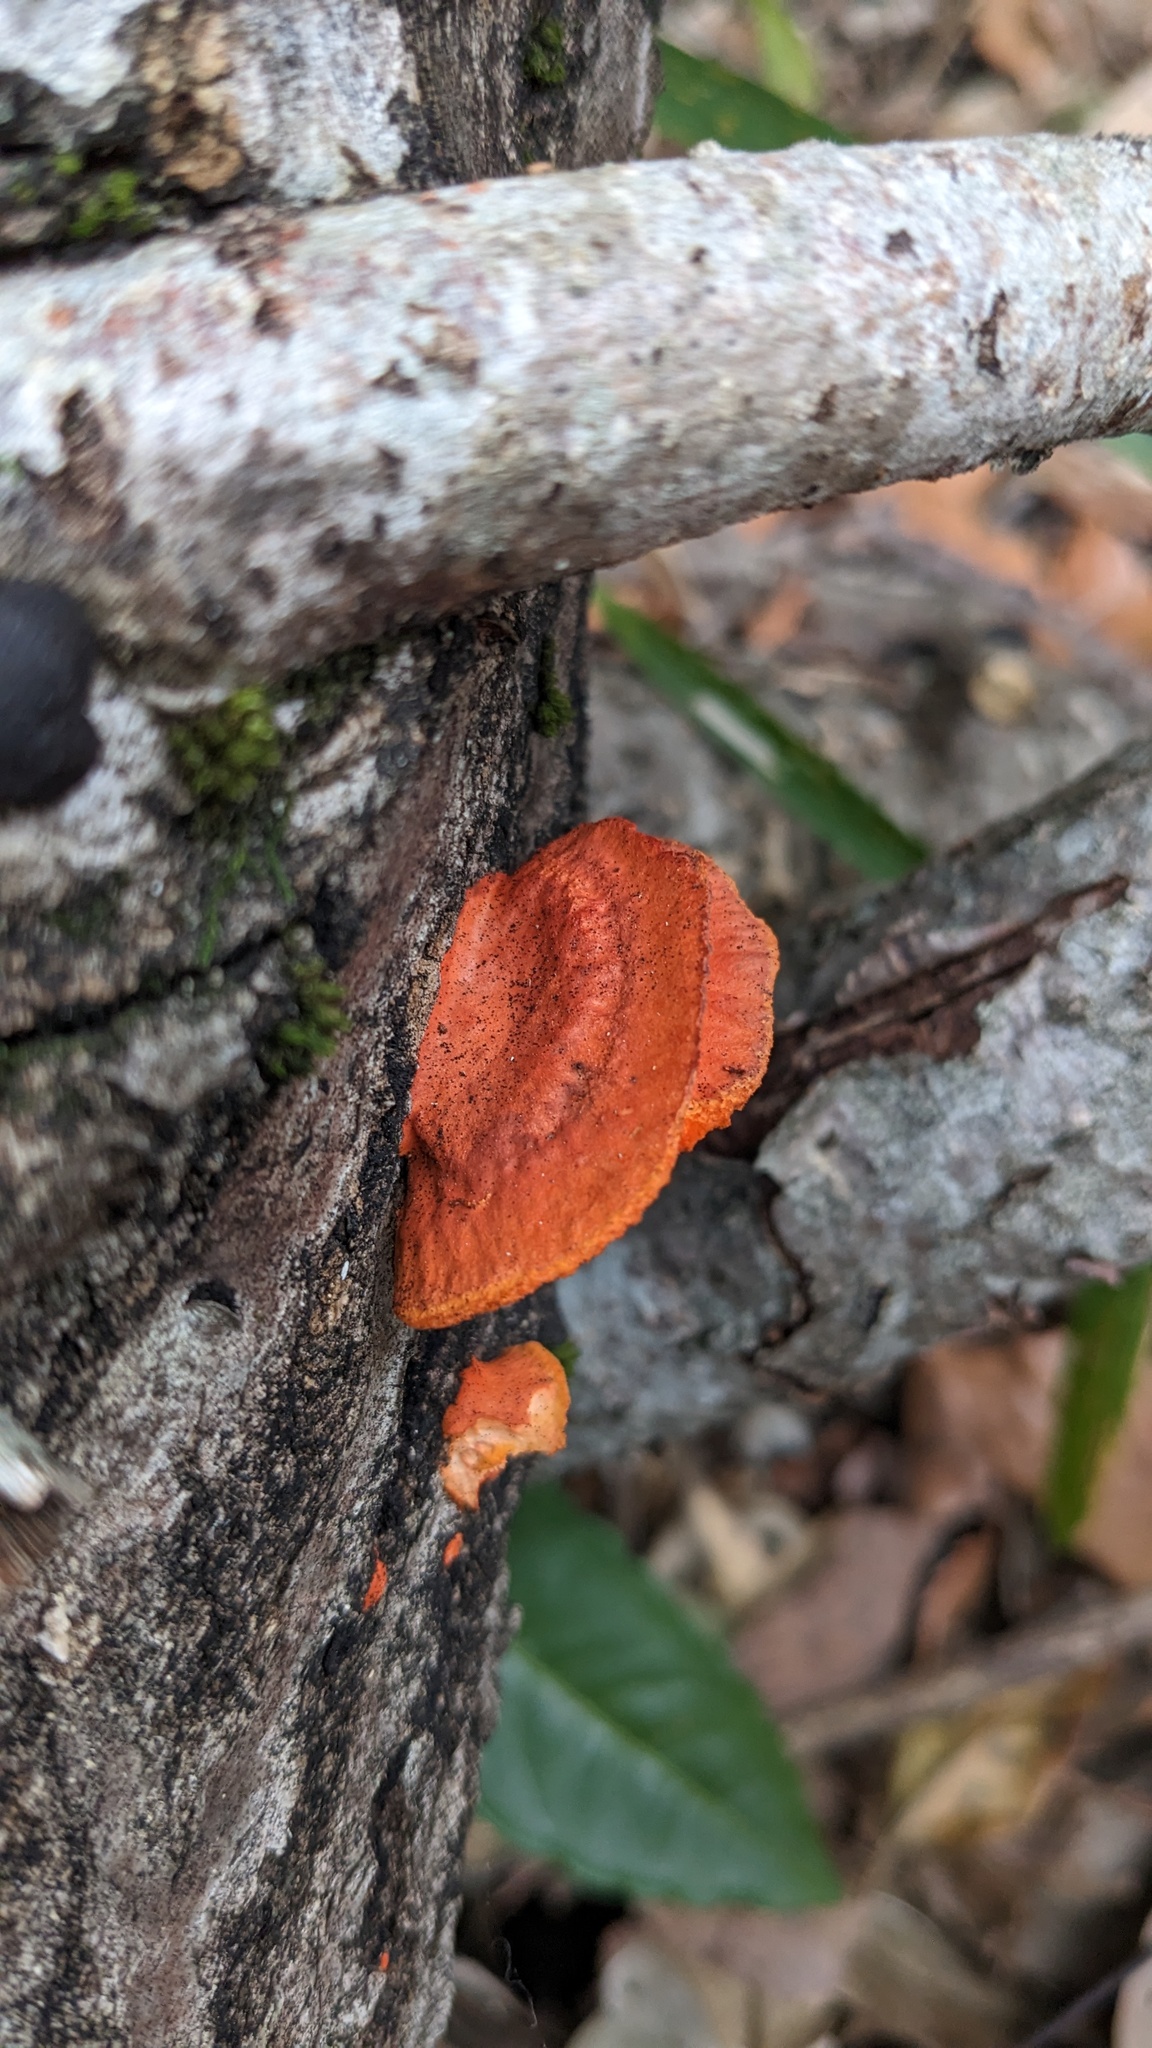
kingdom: Fungi
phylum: Basidiomycota
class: Agaricomycetes
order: Polyporales
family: Polyporaceae
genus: Trametes
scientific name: Trametes coccinea
